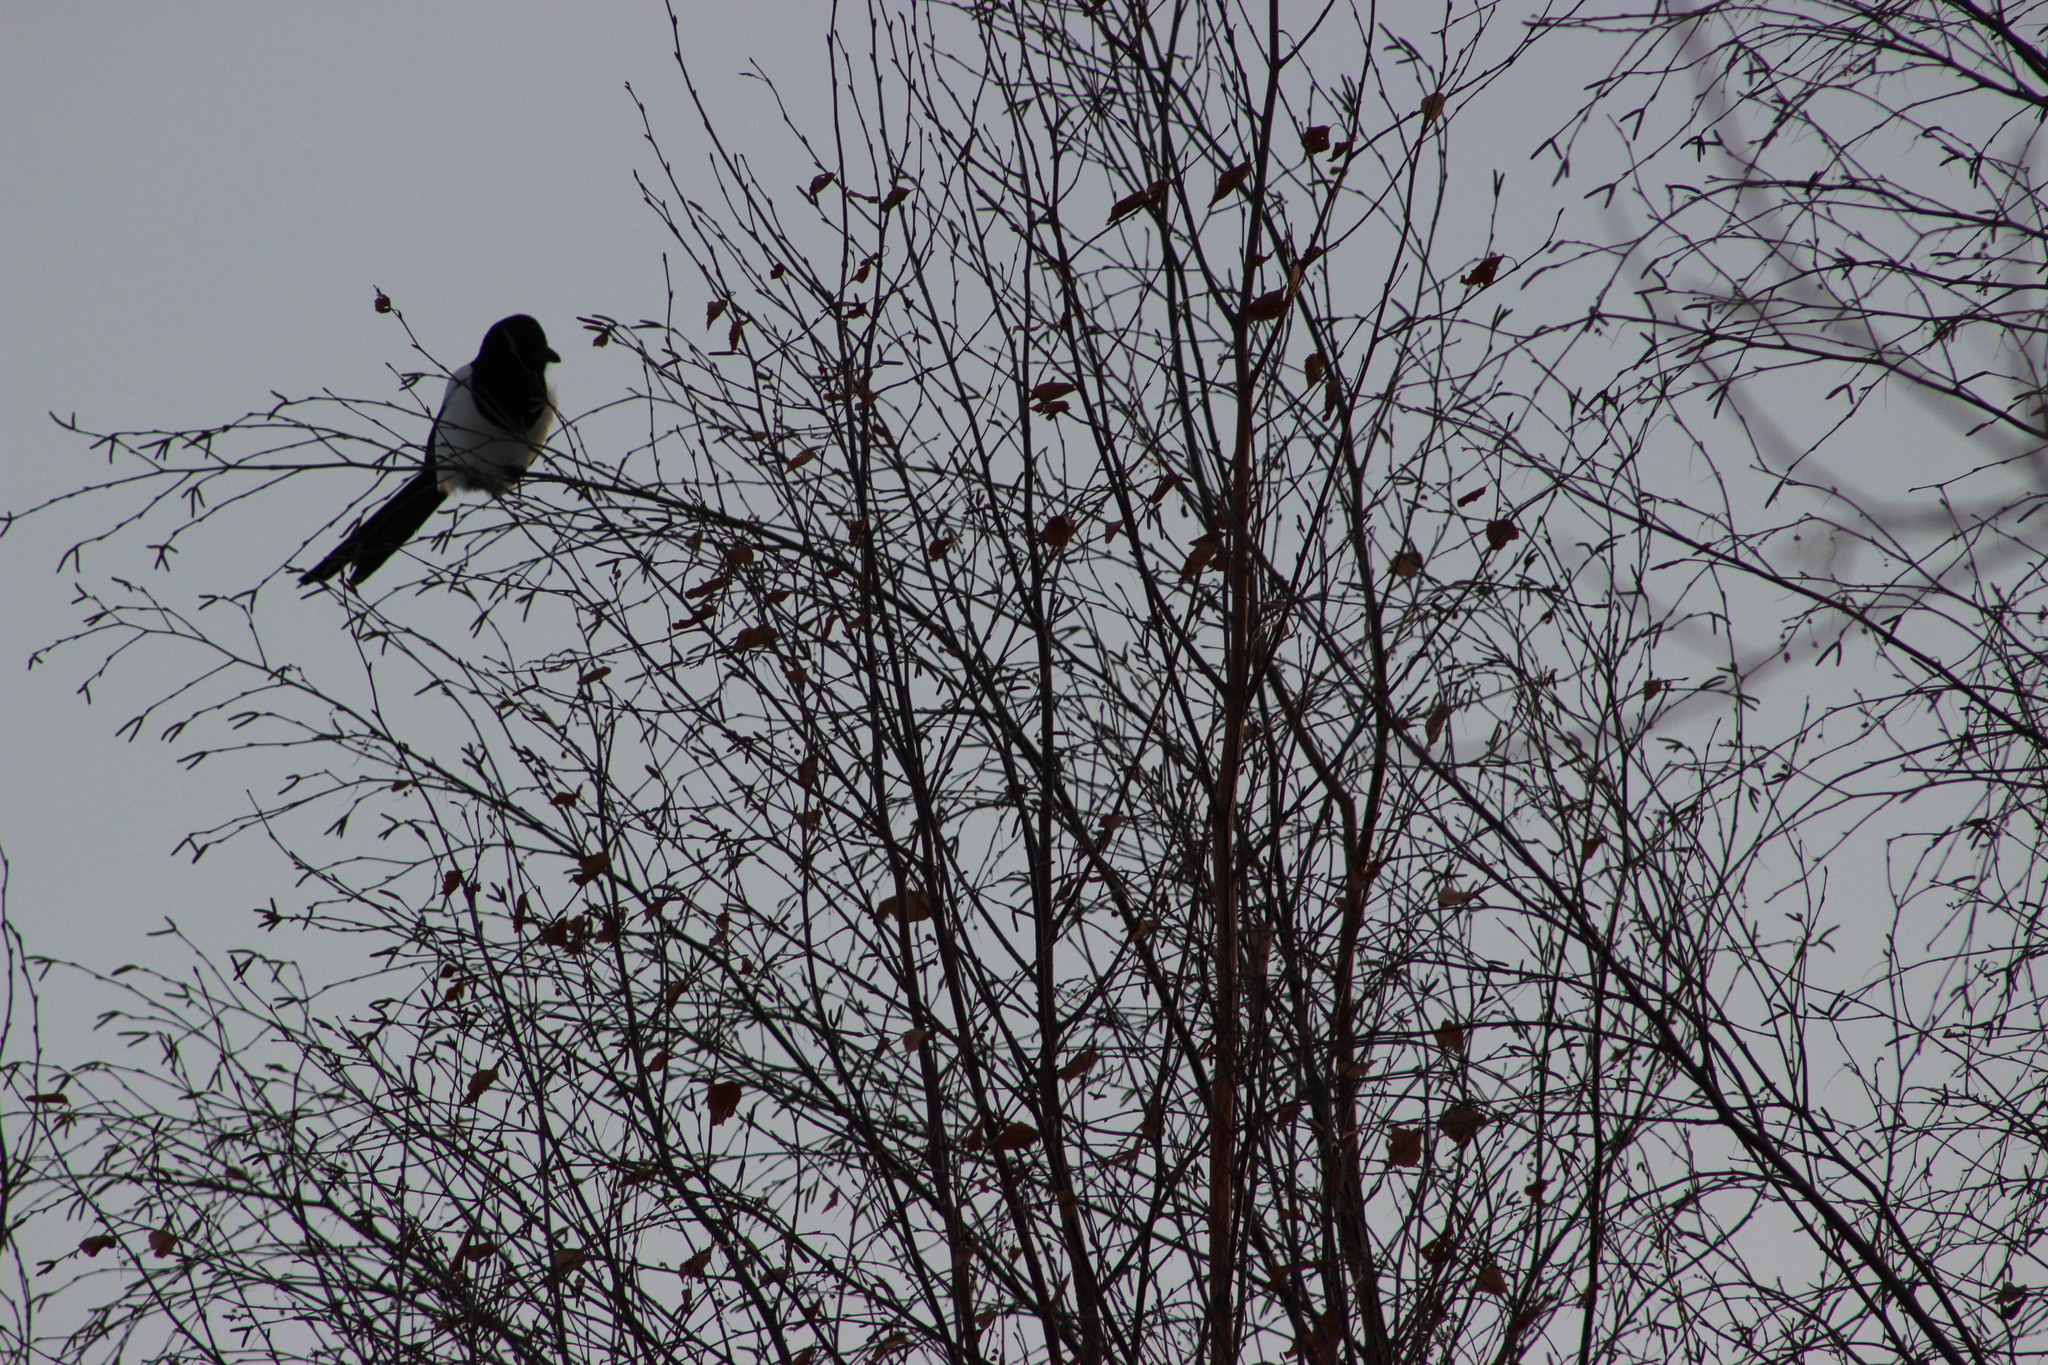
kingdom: Animalia
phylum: Chordata
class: Aves
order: Passeriformes
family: Corvidae
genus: Pica
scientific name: Pica pica
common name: Eurasian magpie
